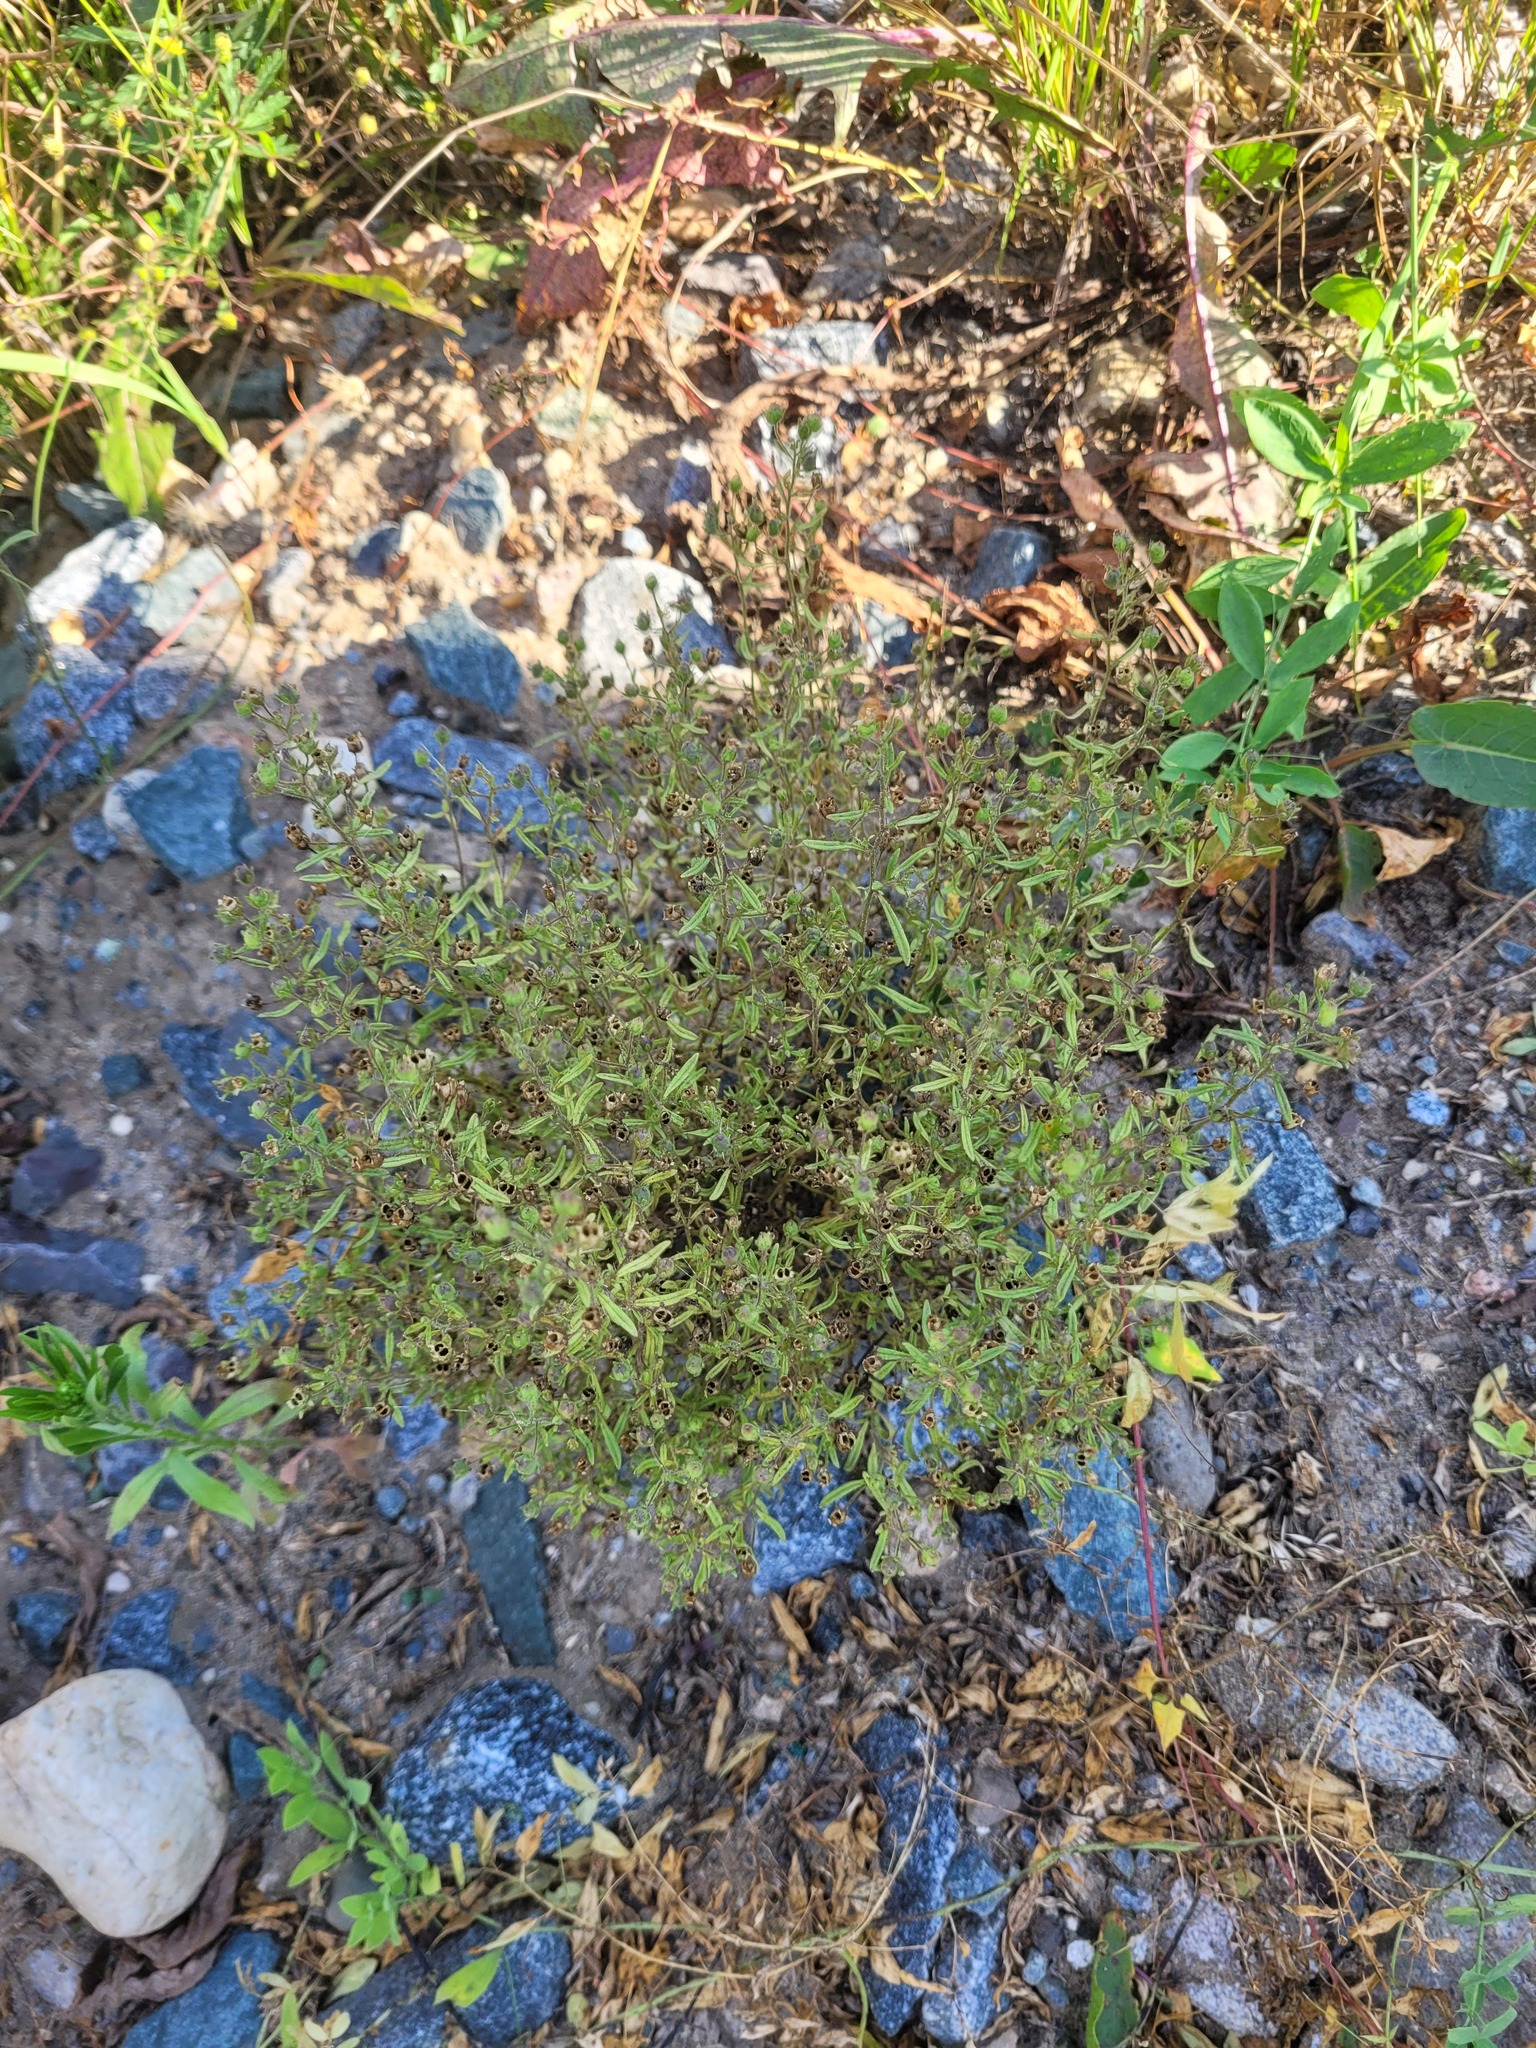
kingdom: Plantae
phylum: Tracheophyta
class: Magnoliopsida
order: Lamiales
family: Plantaginaceae
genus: Chaenorhinum
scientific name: Chaenorhinum minus
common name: Dwarf snapdragon
